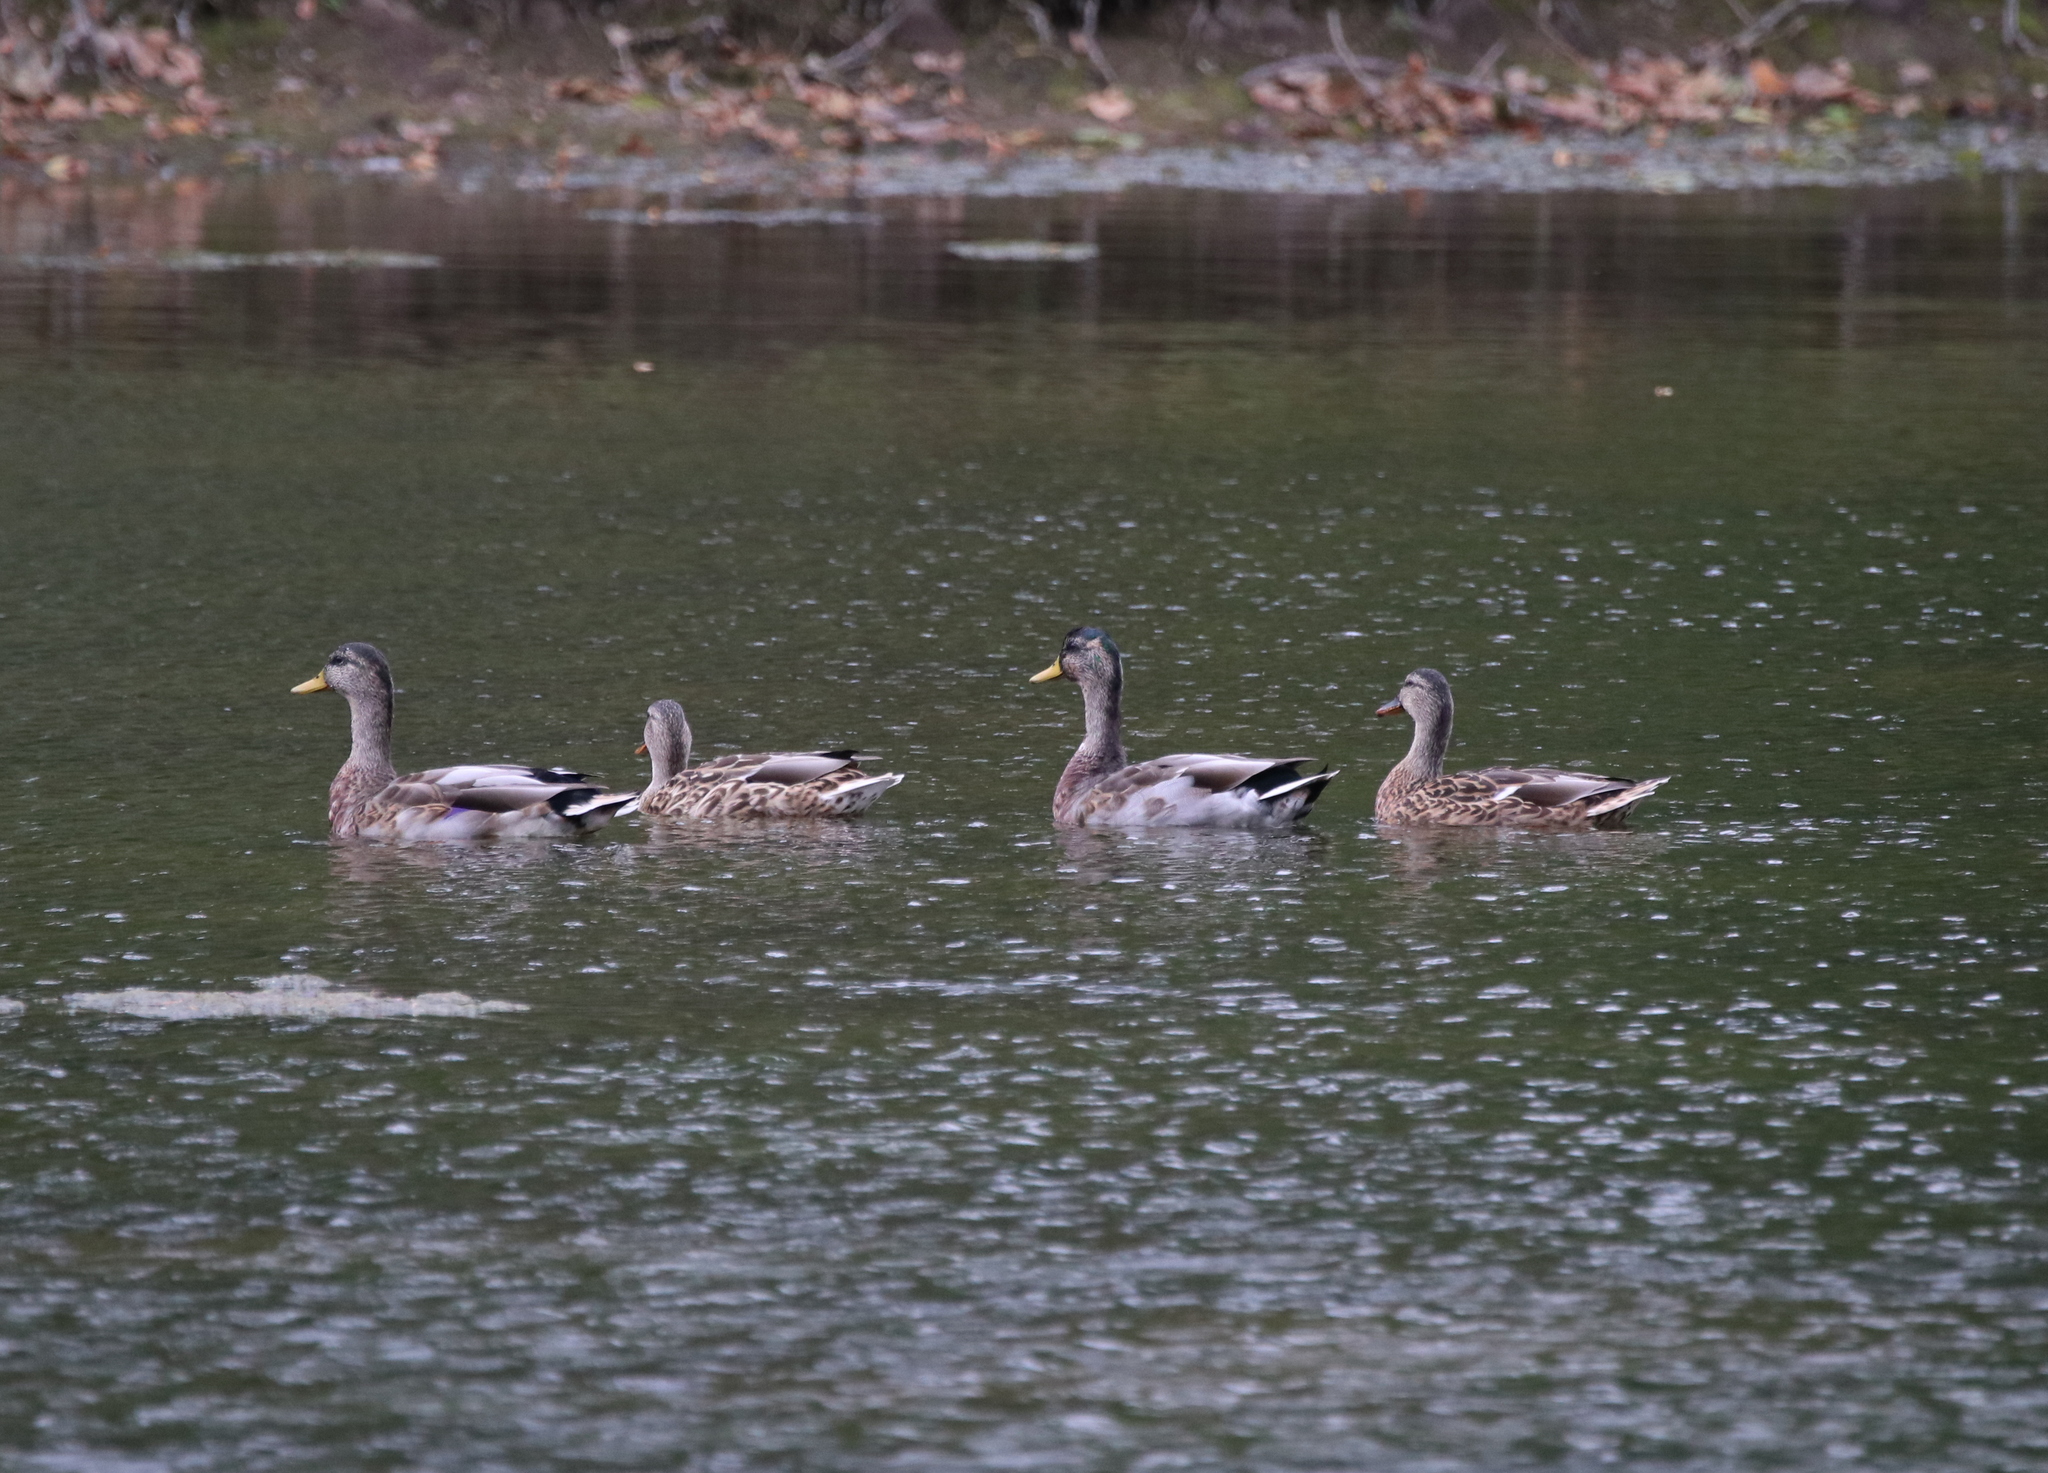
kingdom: Animalia
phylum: Chordata
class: Aves
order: Anseriformes
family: Anatidae
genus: Anas
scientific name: Anas platyrhynchos
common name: Mallard
